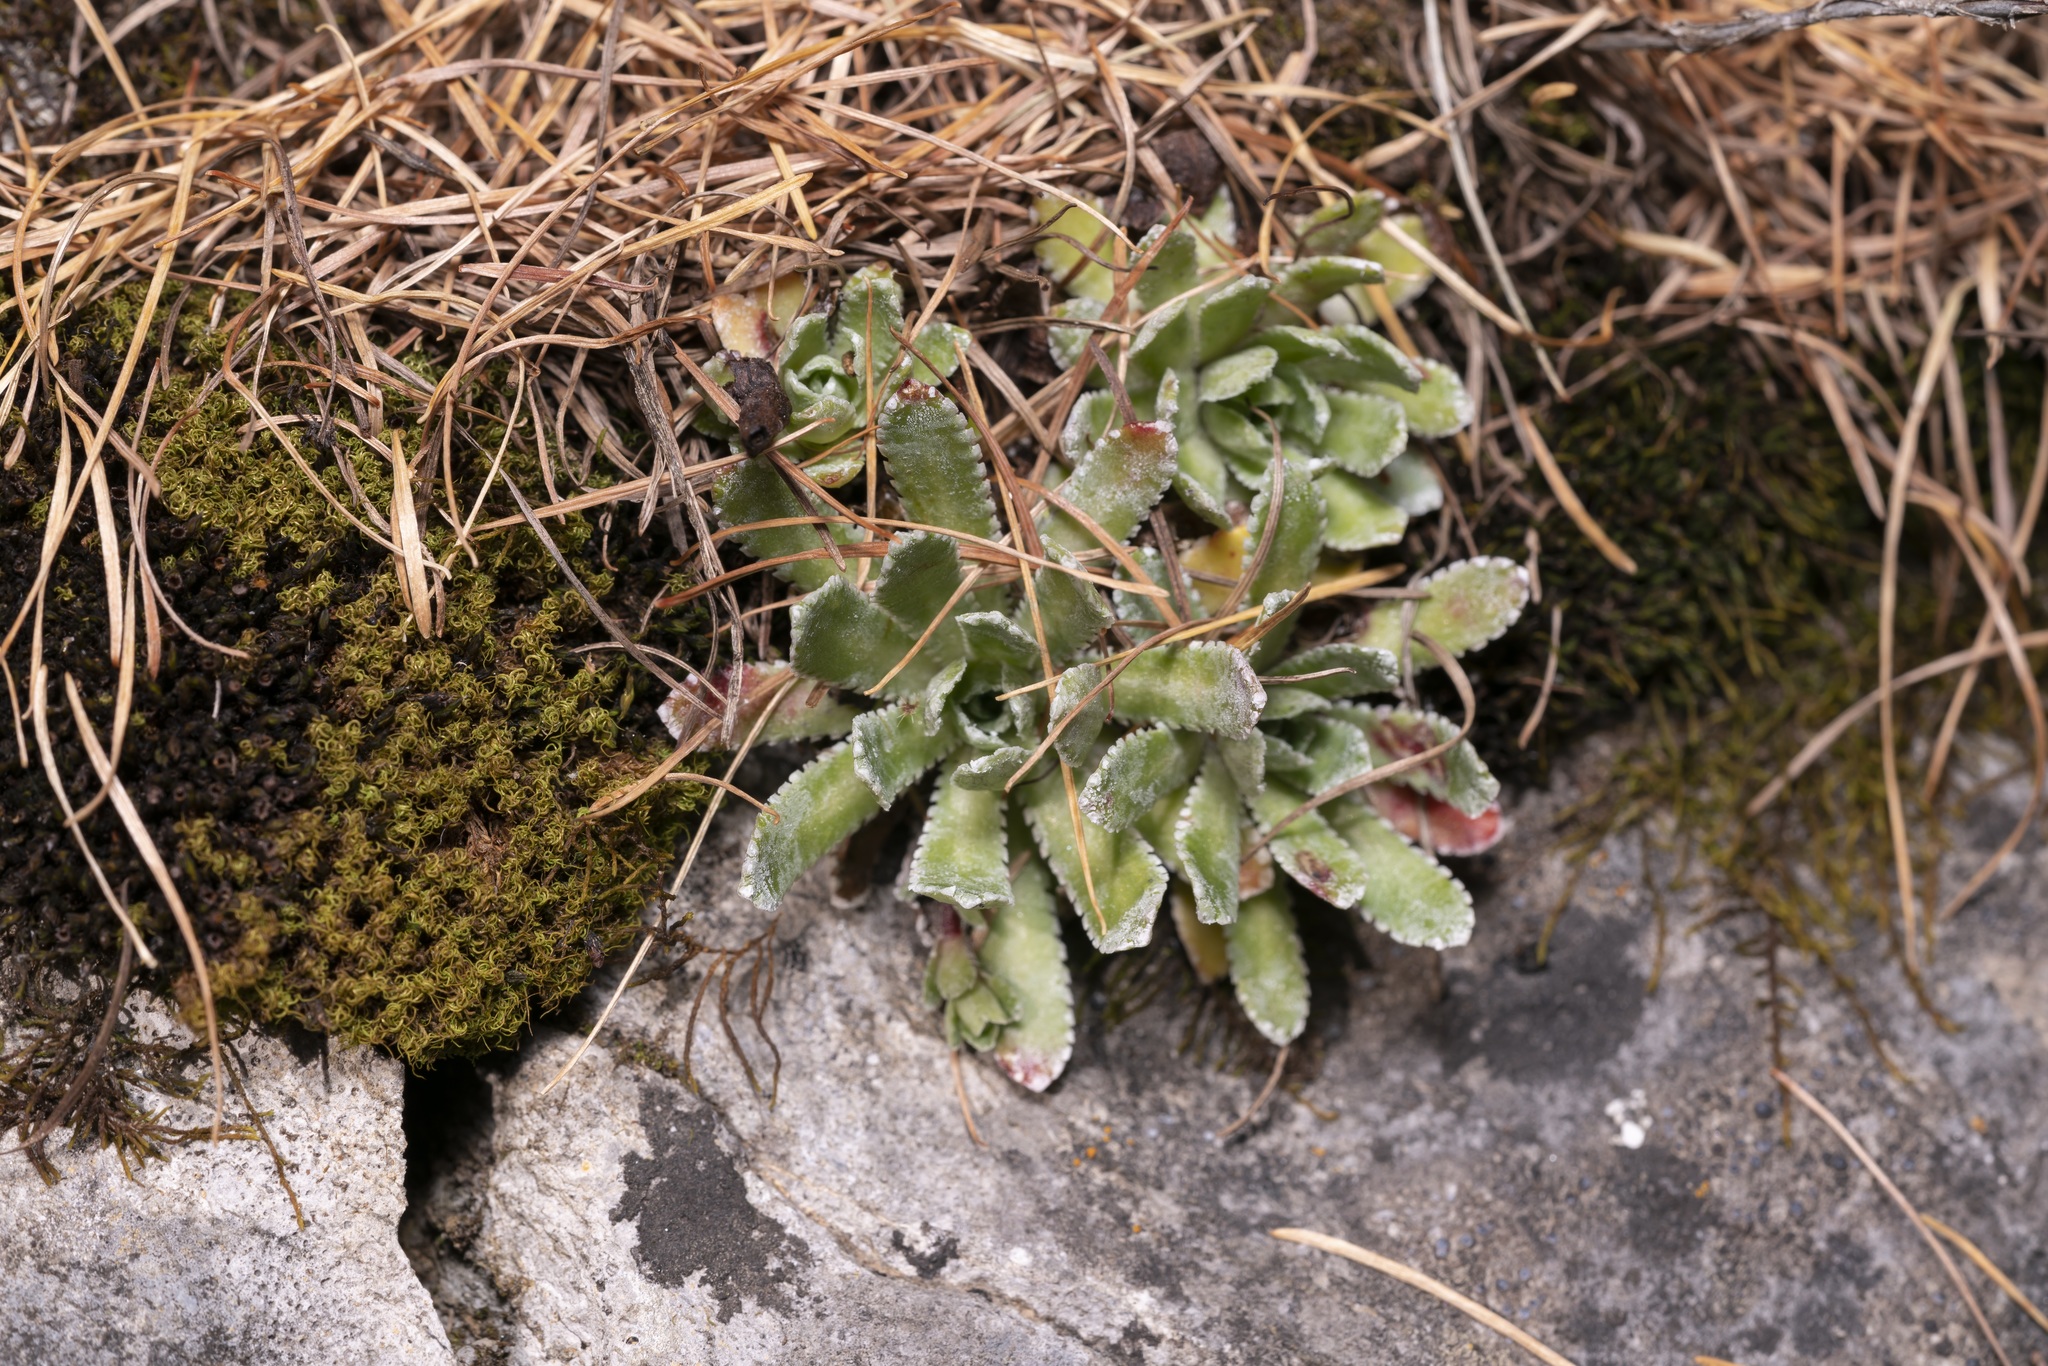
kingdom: Plantae
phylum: Tracheophyta
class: Magnoliopsida
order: Saxifragales
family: Saxifragaceae
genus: Saxifraga
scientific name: Saxifraga paniculata
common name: Livelong saxifrage
